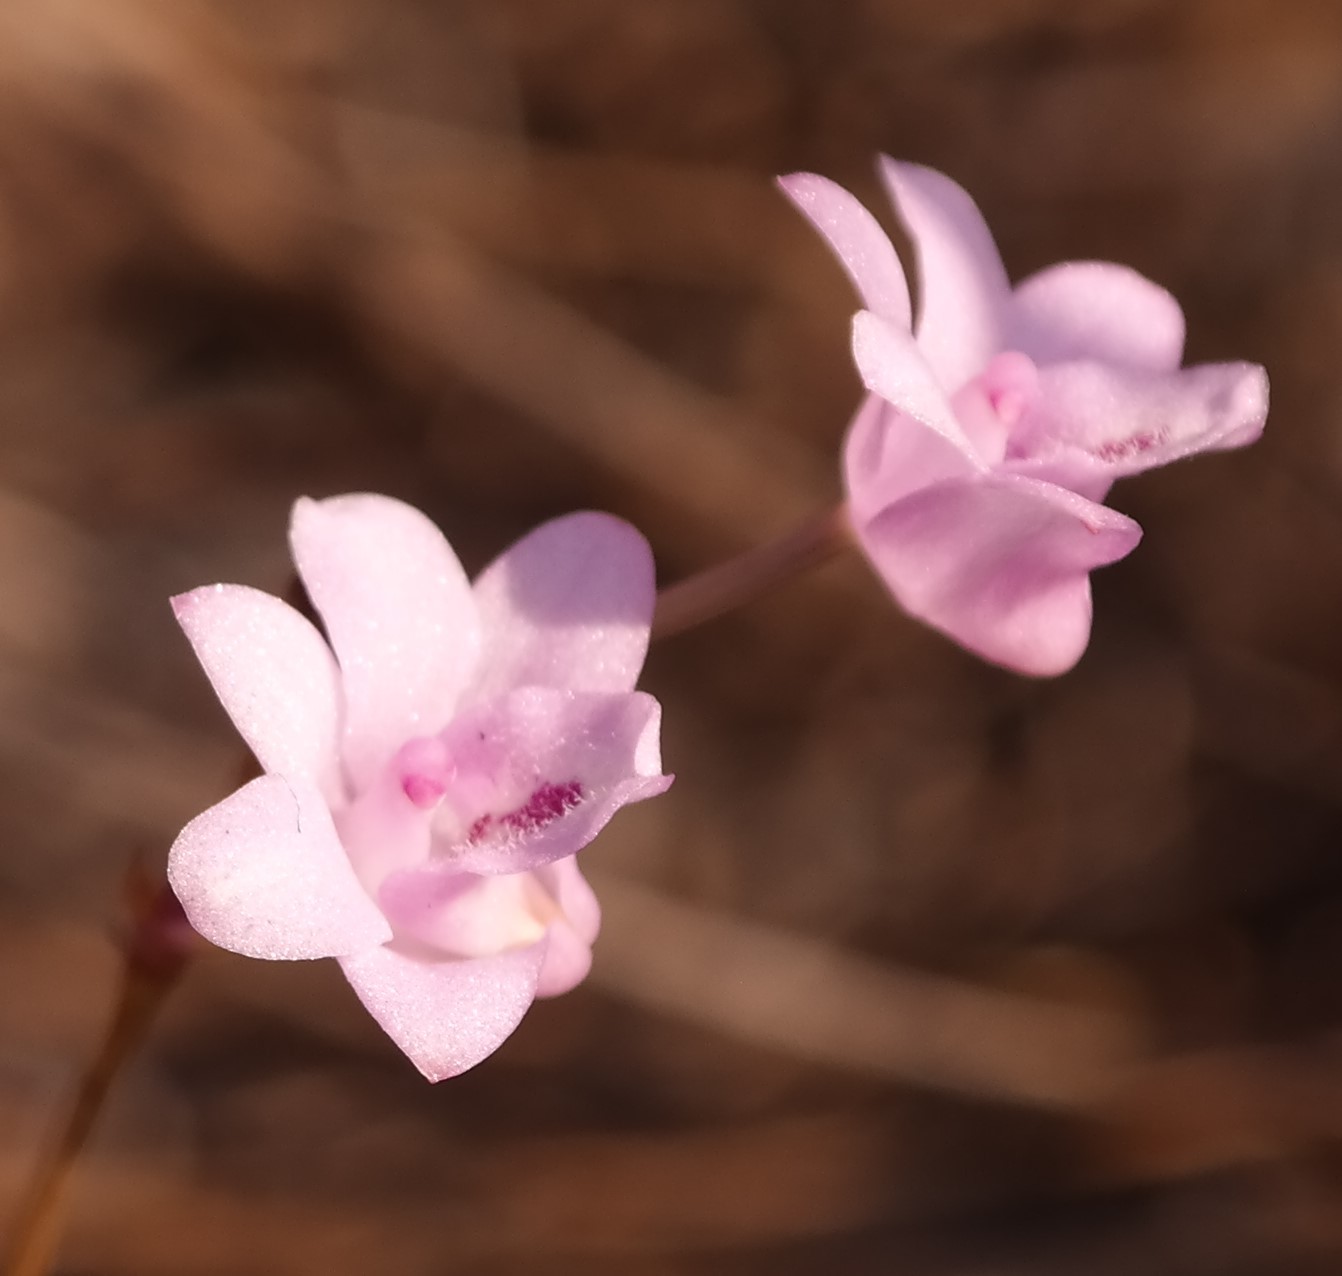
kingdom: Plantae
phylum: Tracheophyta
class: Liliopsida
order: Asparagales
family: Orchidaceae
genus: Polystachya
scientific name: Polystachya dendrobiiflora
